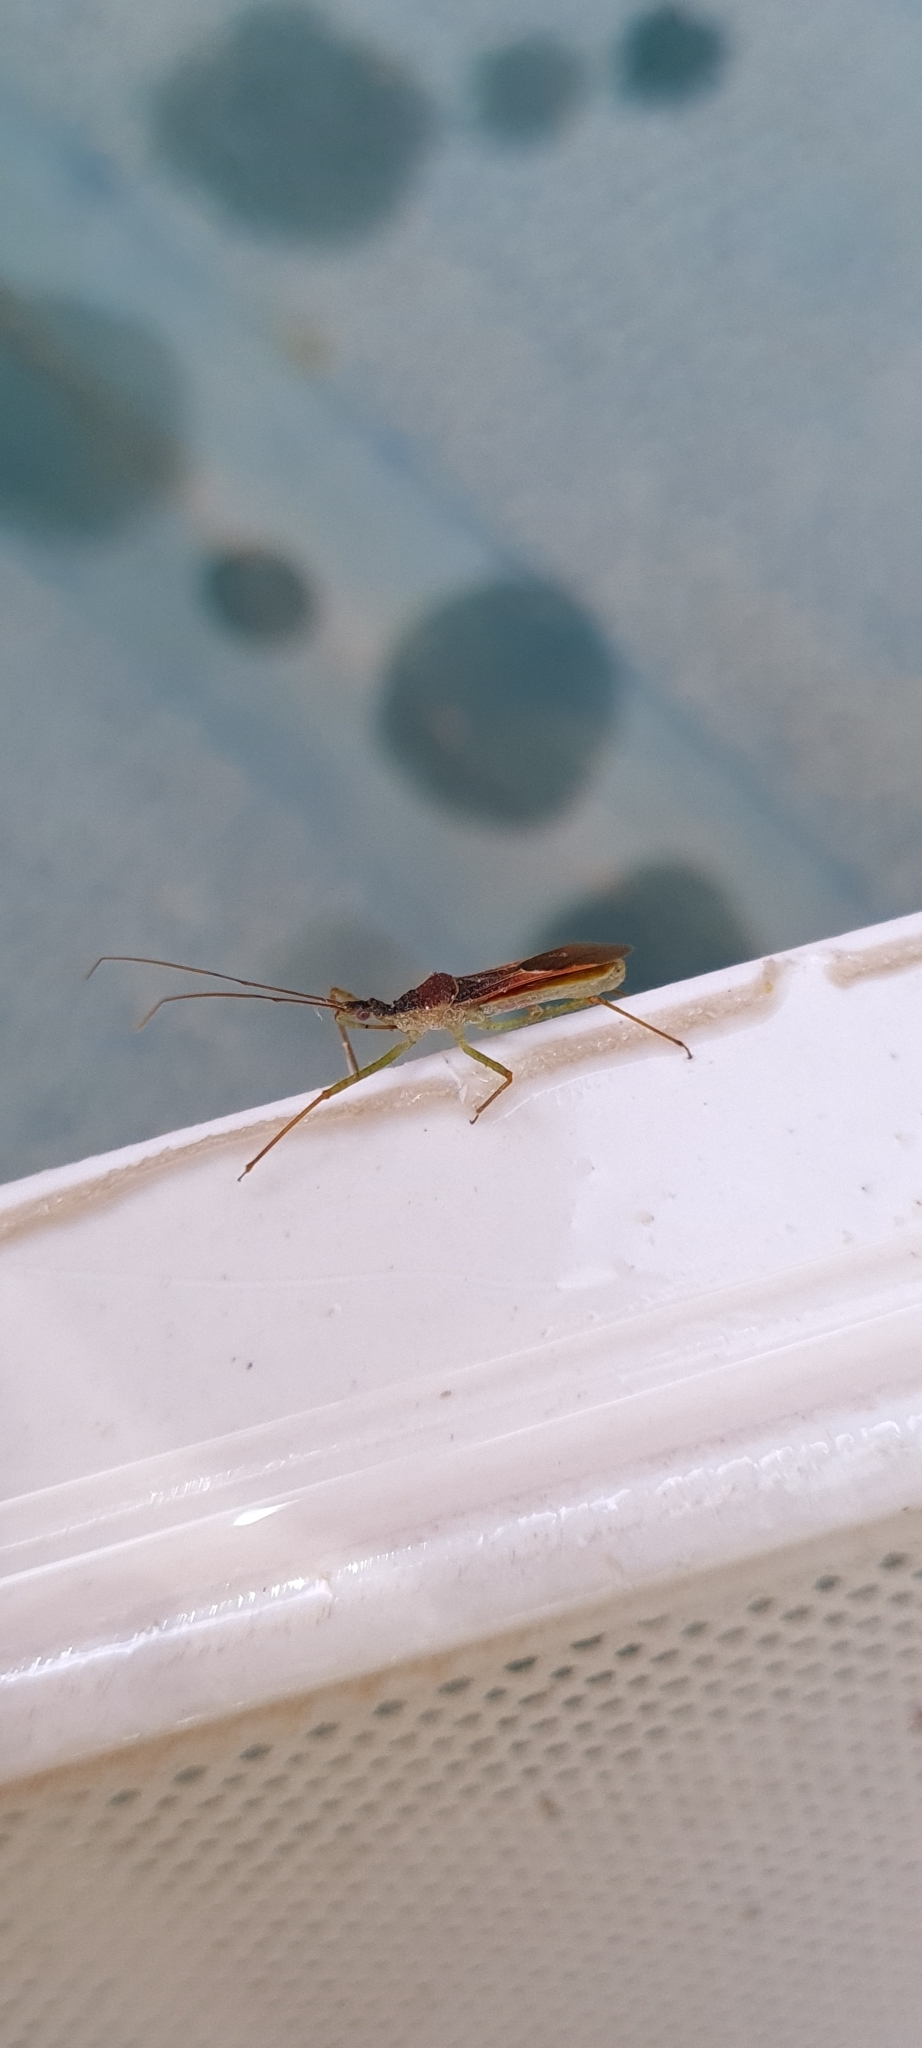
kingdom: Animalia
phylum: Arthropoda
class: Insecta
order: Hemiptera
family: Reduviidae
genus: Zelus
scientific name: Zelus renardii
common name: Assassin bug
